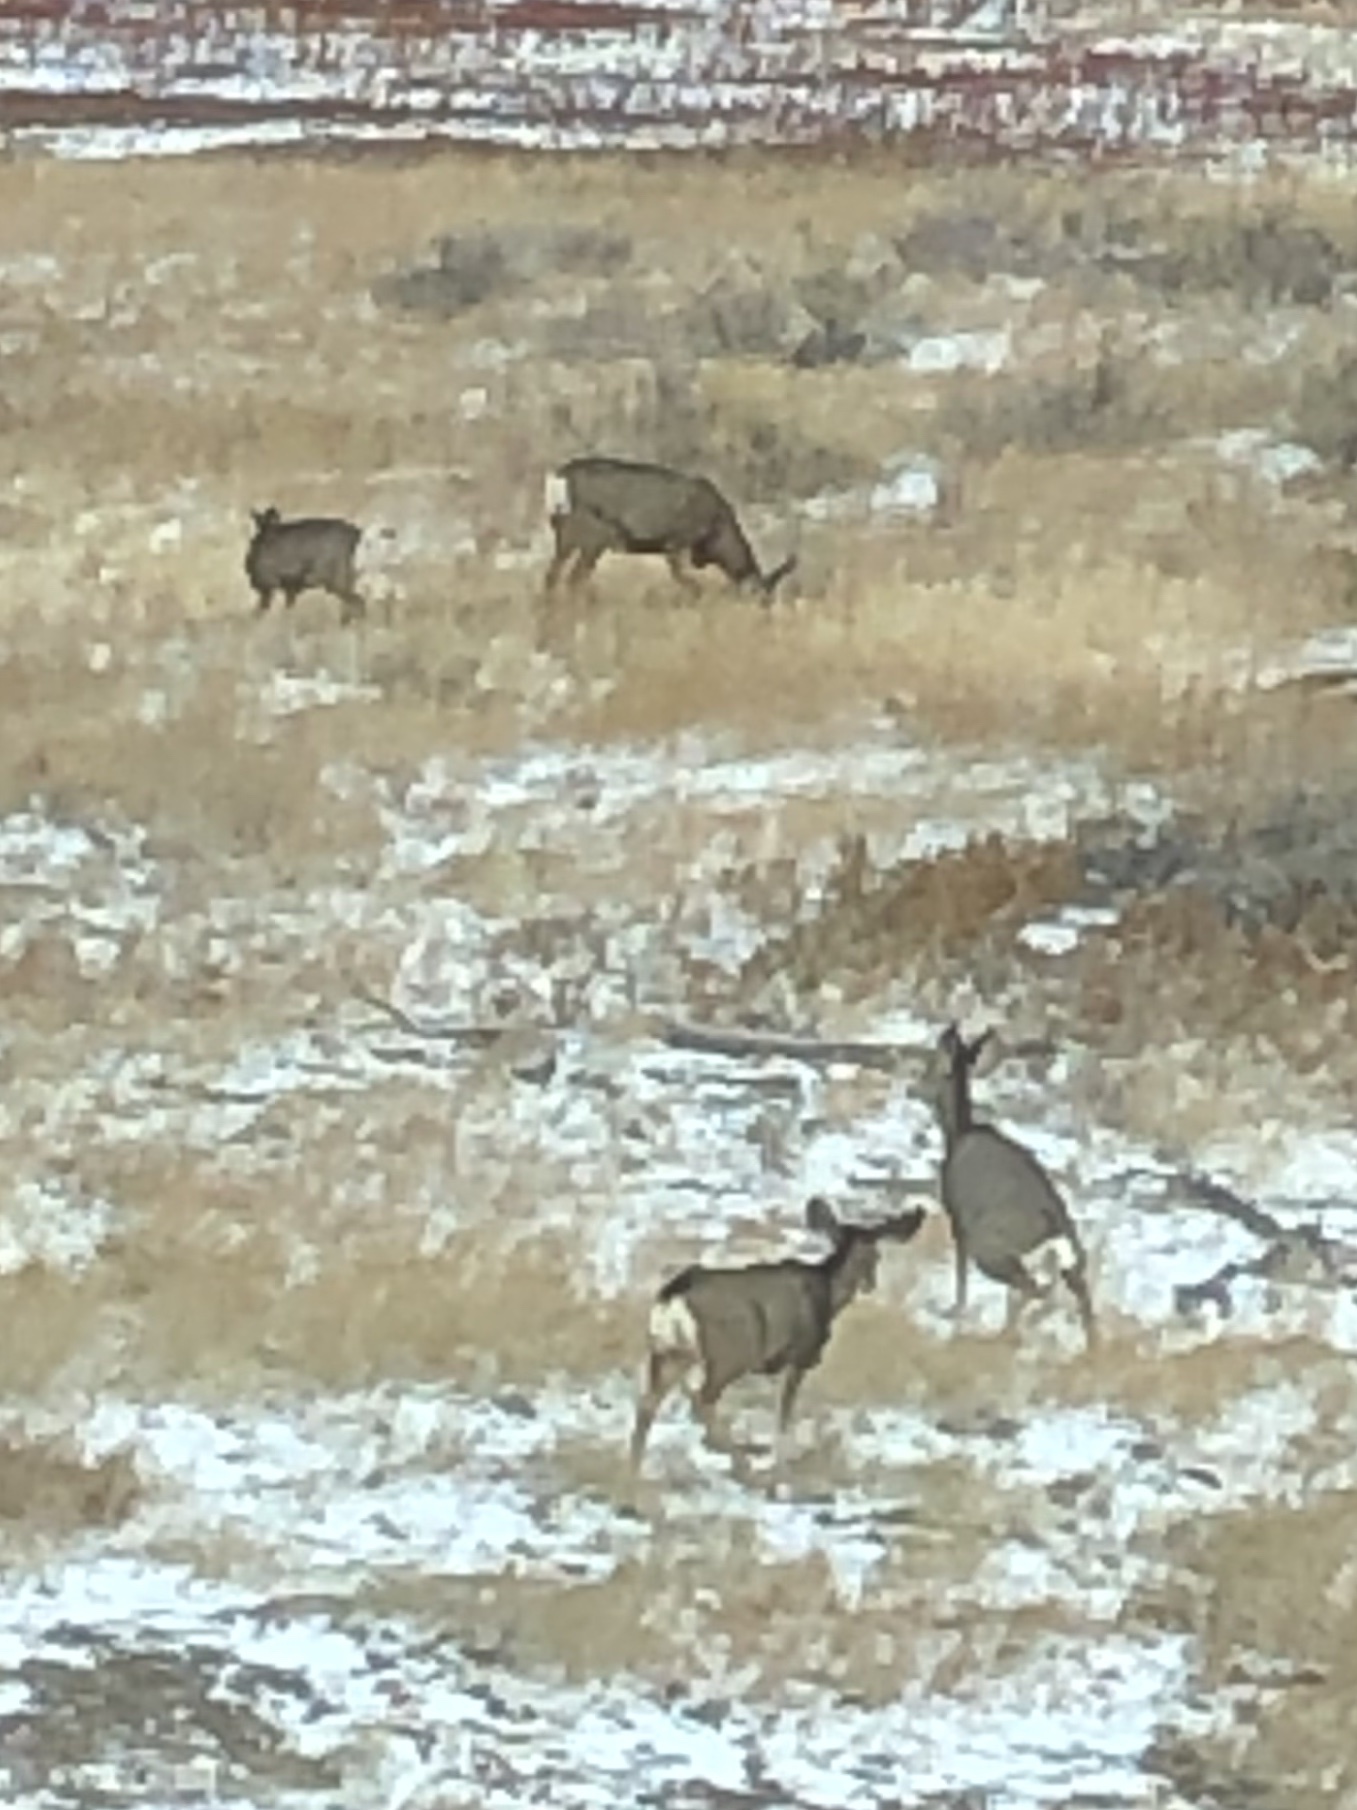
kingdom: Animalia
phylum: Chordata
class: Mammalia
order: Artiodactyla
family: Cervidae
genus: Odocoileus
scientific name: Odocoileus hemionus
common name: Mule deer
